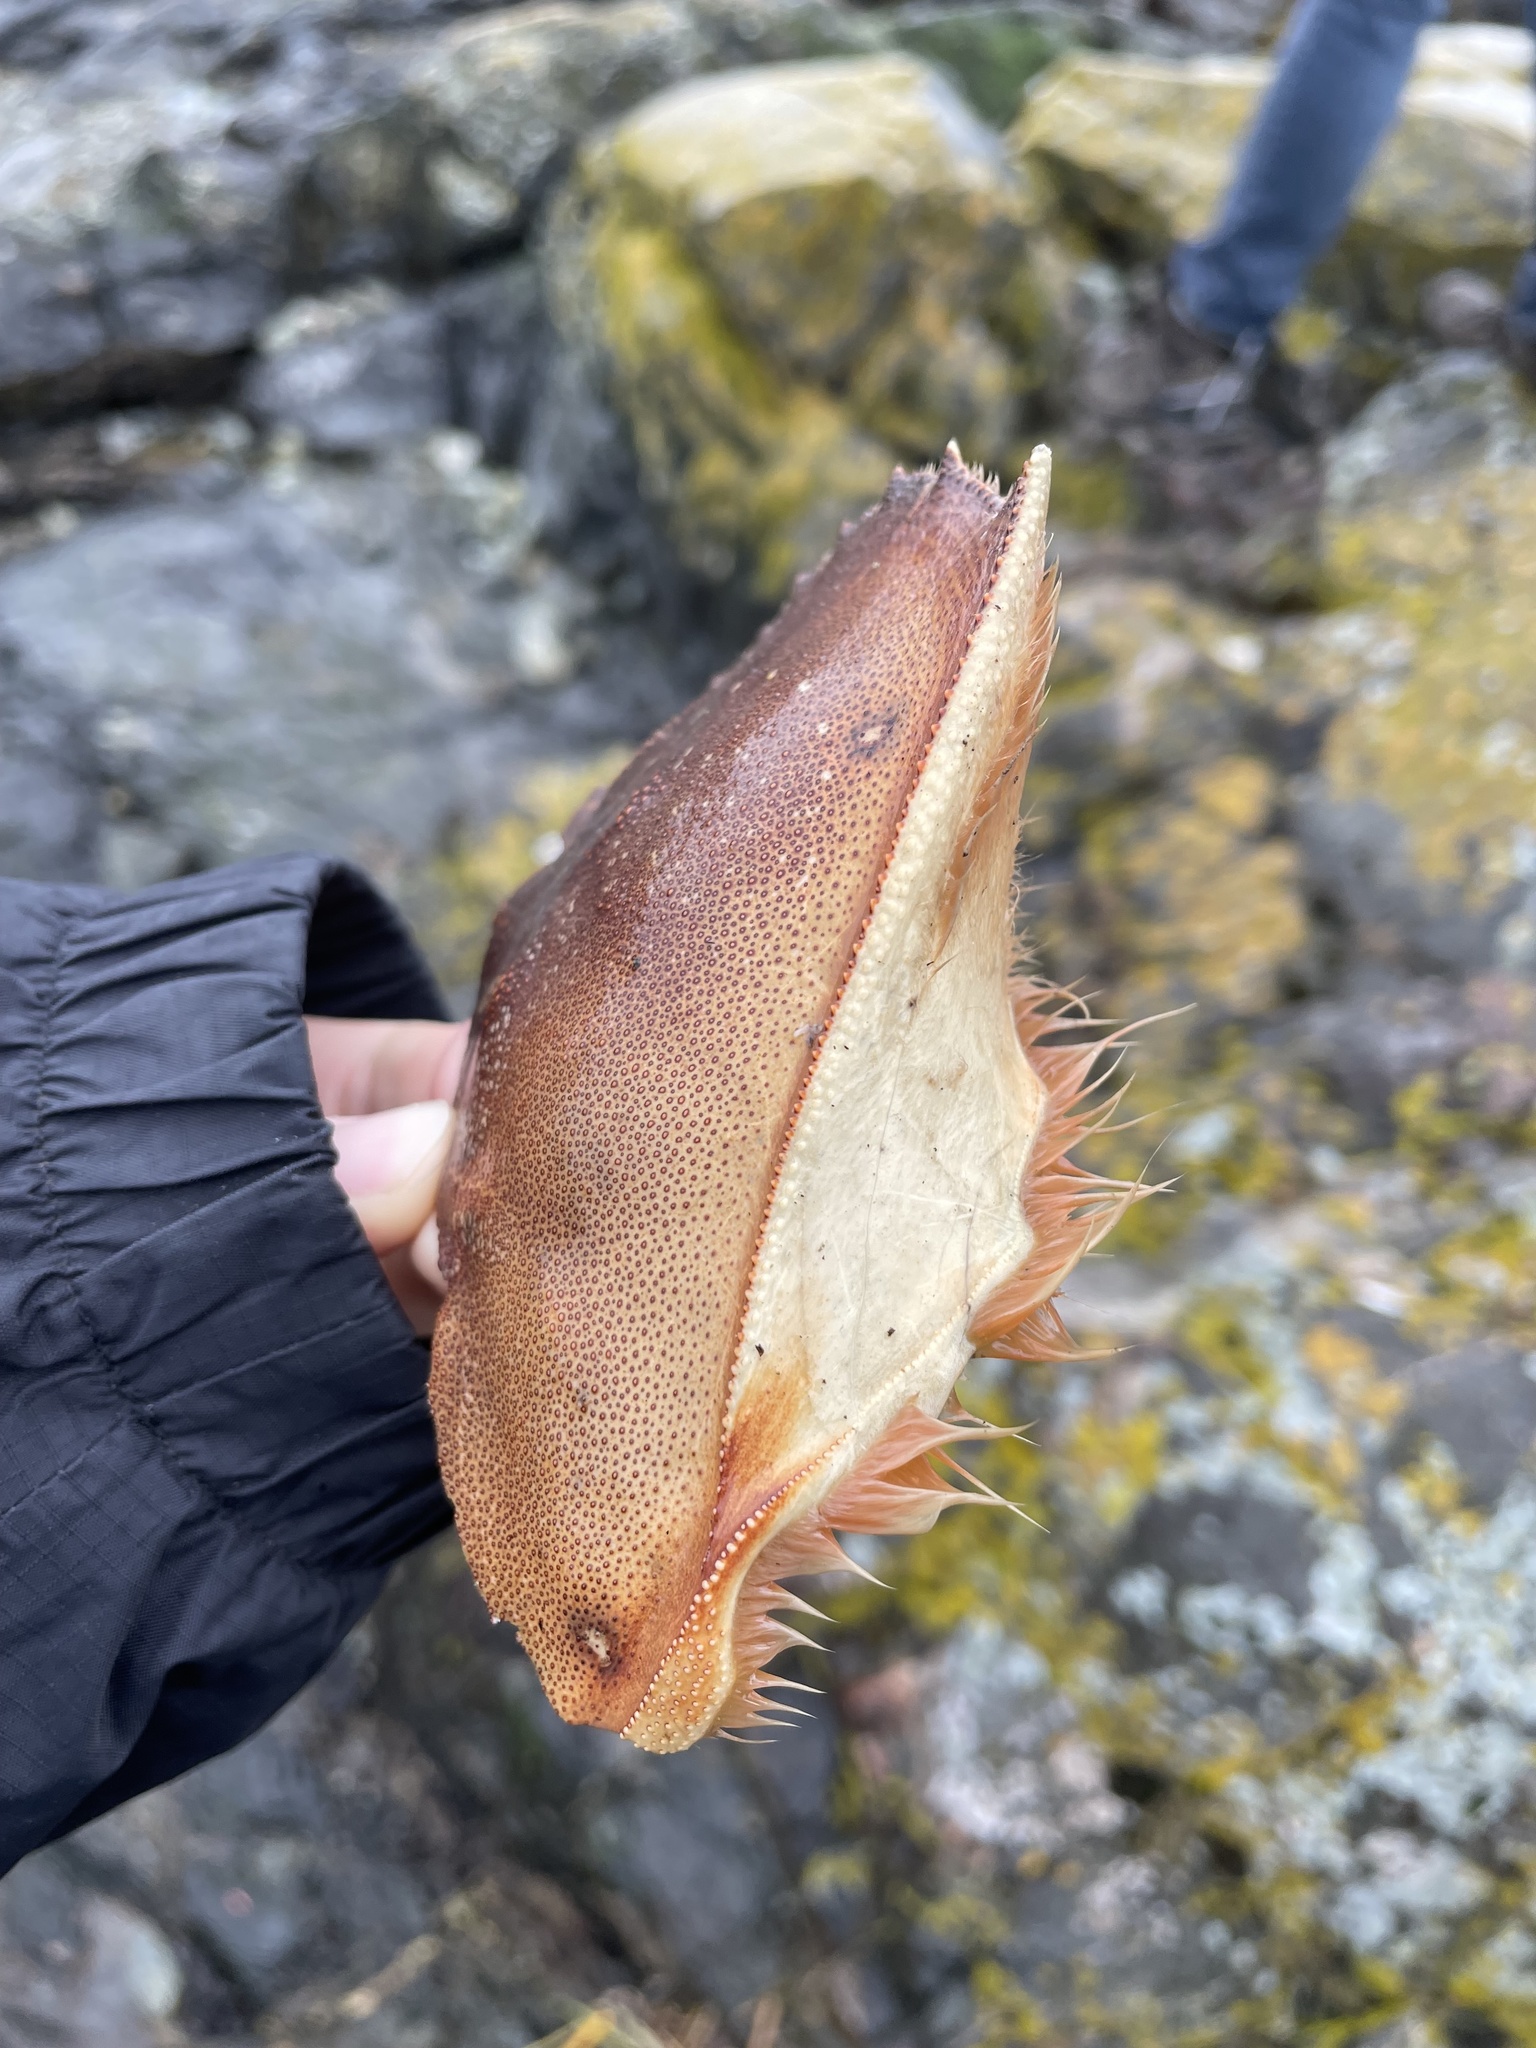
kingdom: Animalia
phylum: Arthropoda
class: Malacostraca
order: Decapoda
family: Cancridae
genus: Metacarcinus
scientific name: Metacarcinus magister
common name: Californian crab
